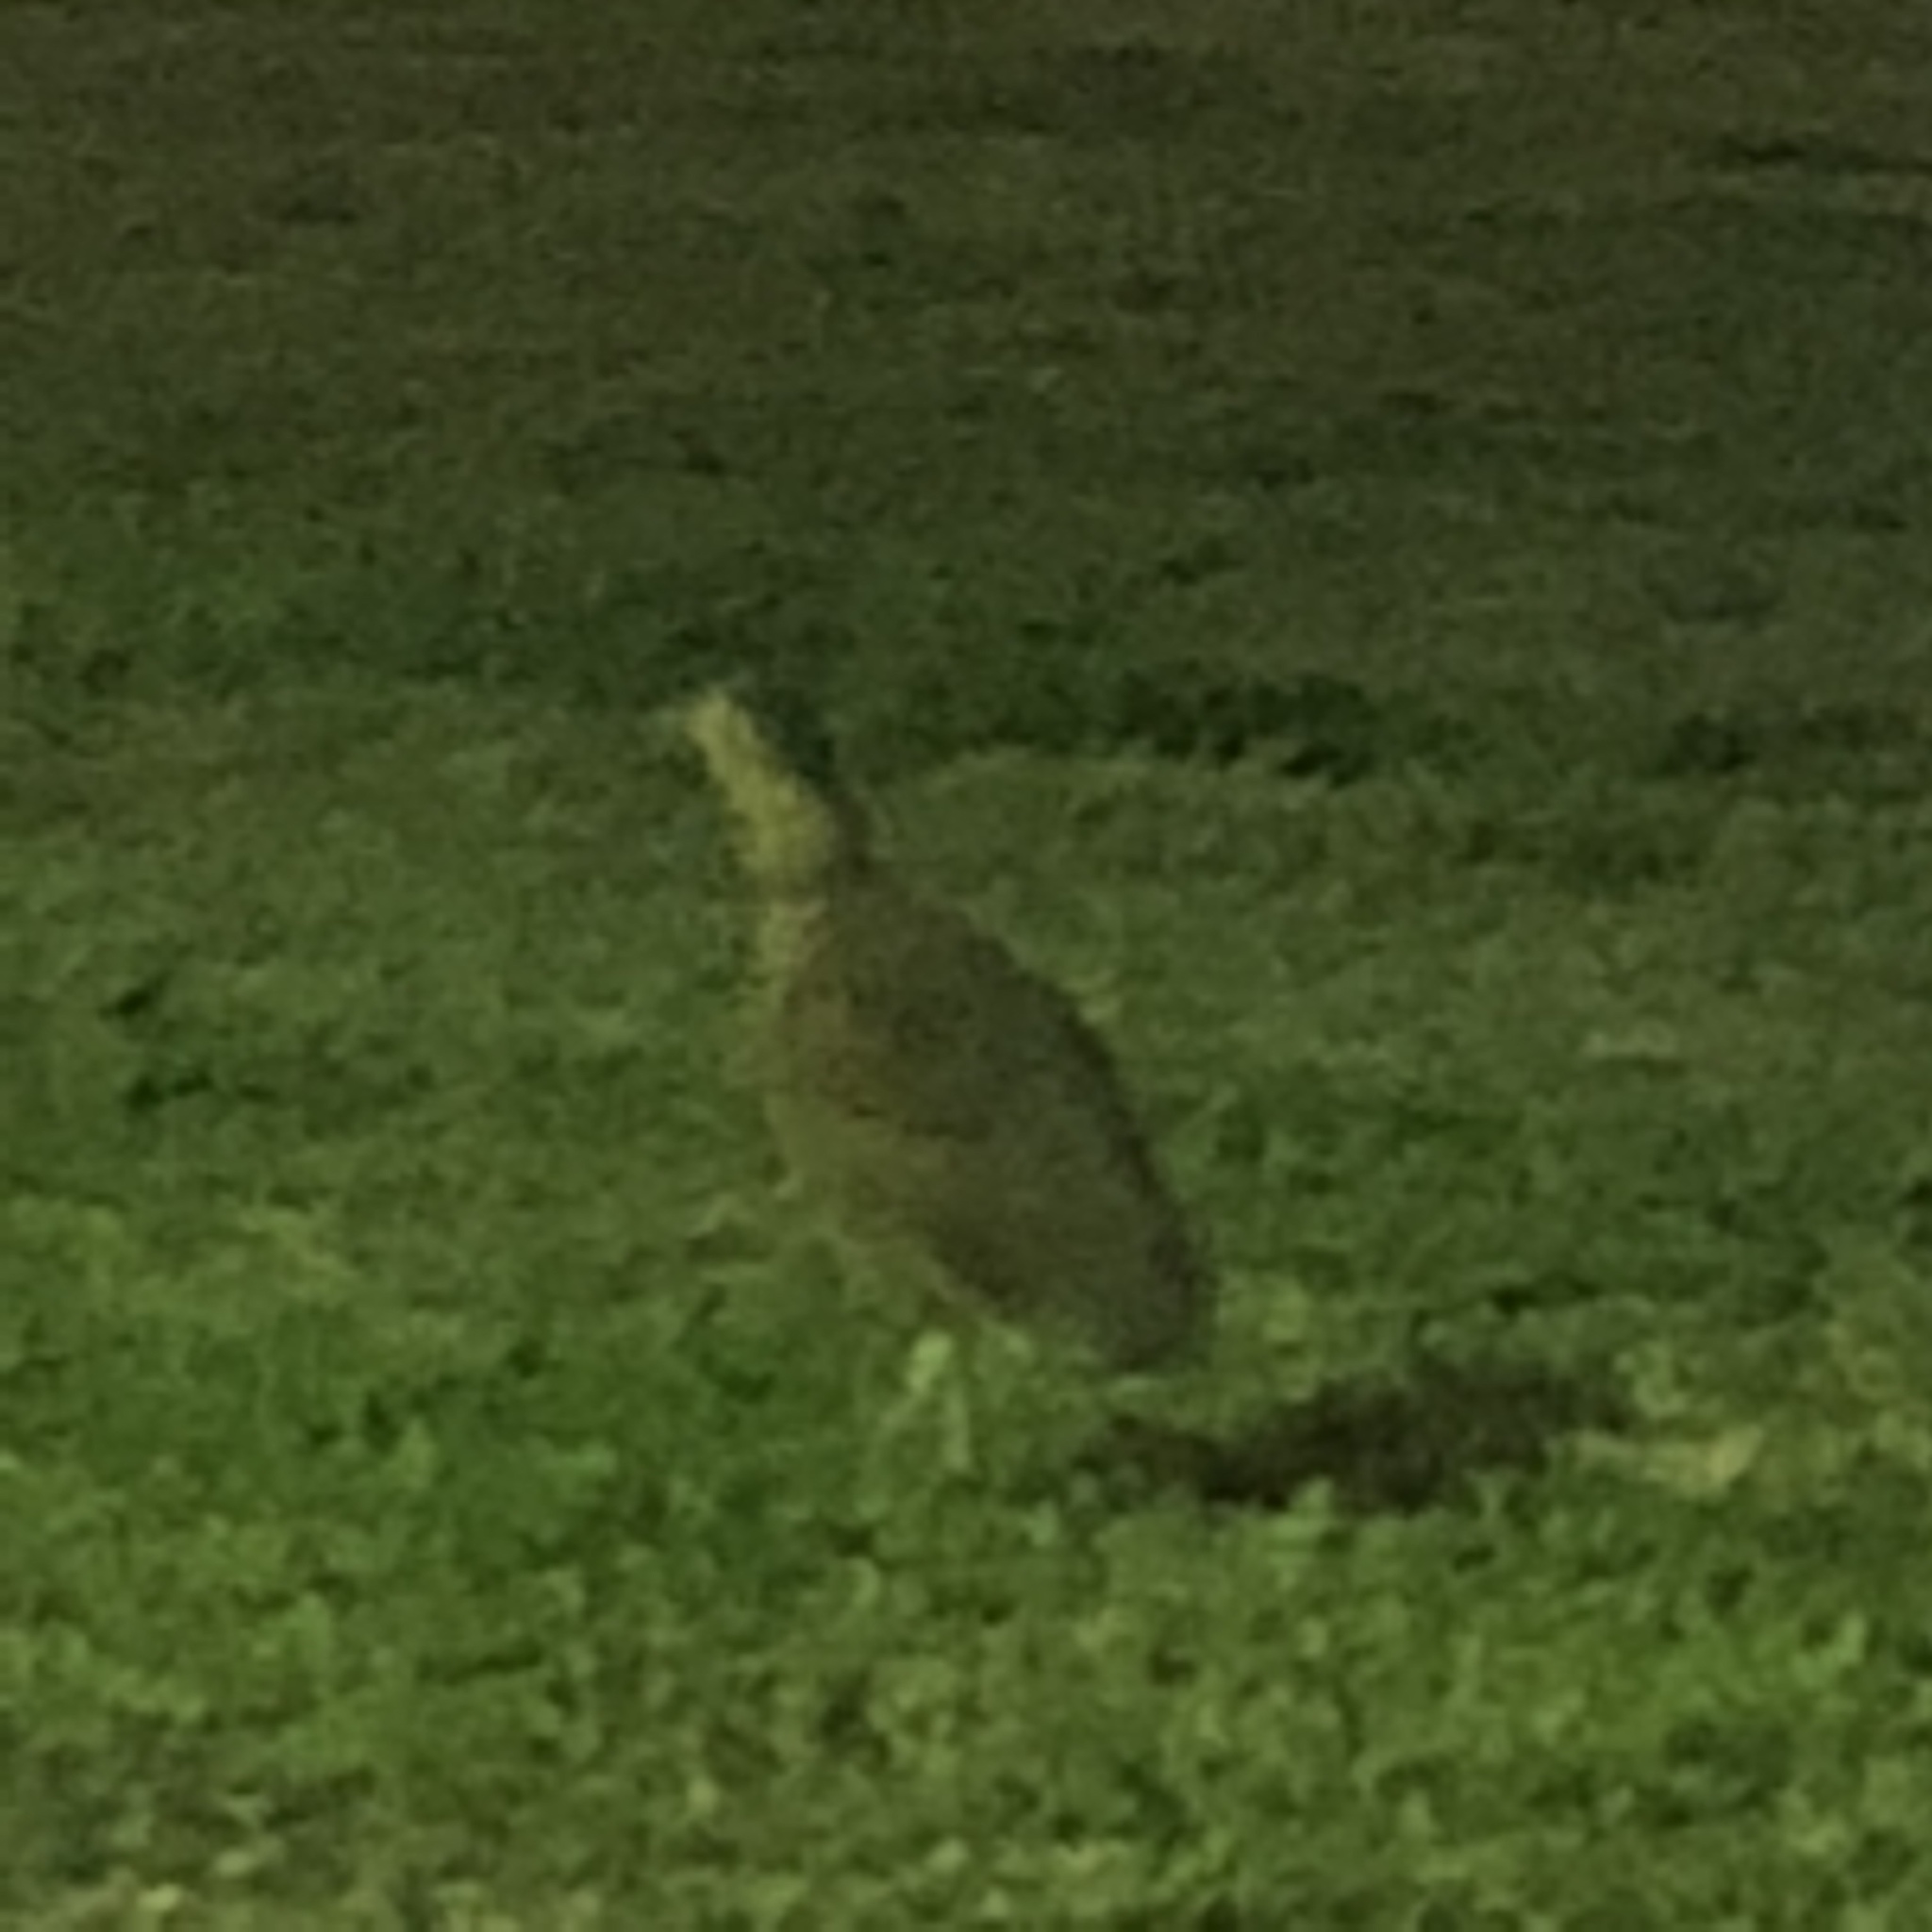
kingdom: Animalia
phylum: Chordata
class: Aves
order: Pelecaniformes
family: Ardeidae
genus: Gorsachius
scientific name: Gorsachius melanolophus
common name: Malayan night heron
